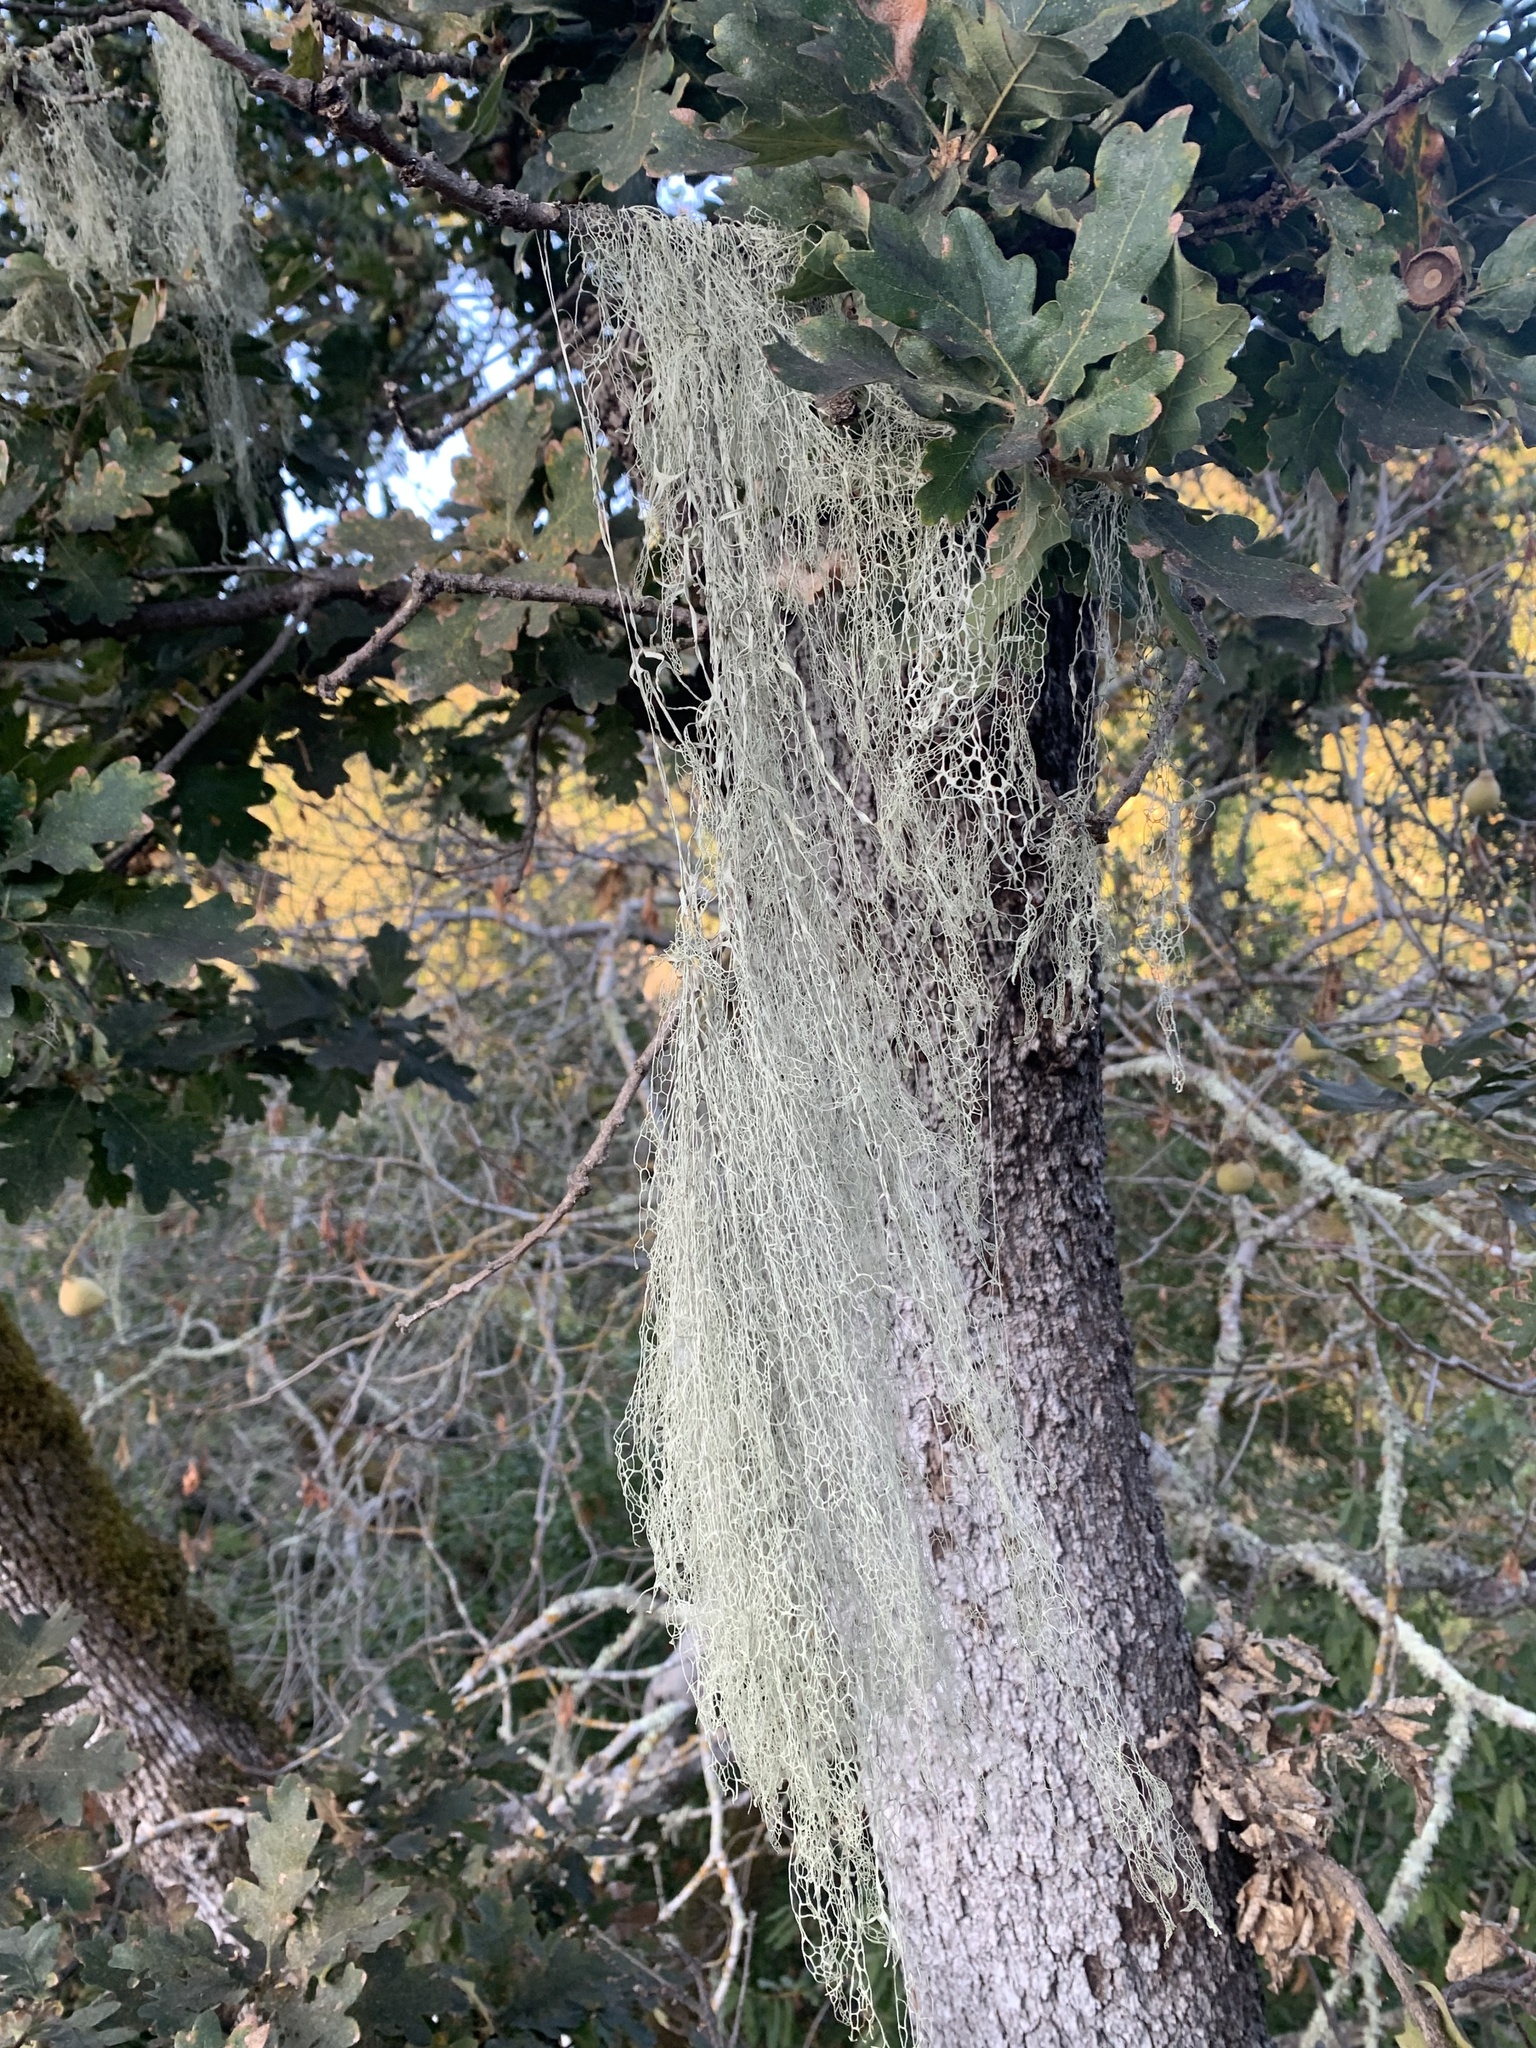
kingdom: Fungi
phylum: Ascomycota
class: Lecanoromycetes
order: Lecanorales
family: Ramalinaceae
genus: Ramalina
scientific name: Ramalina menziesii
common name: Lace lichen
